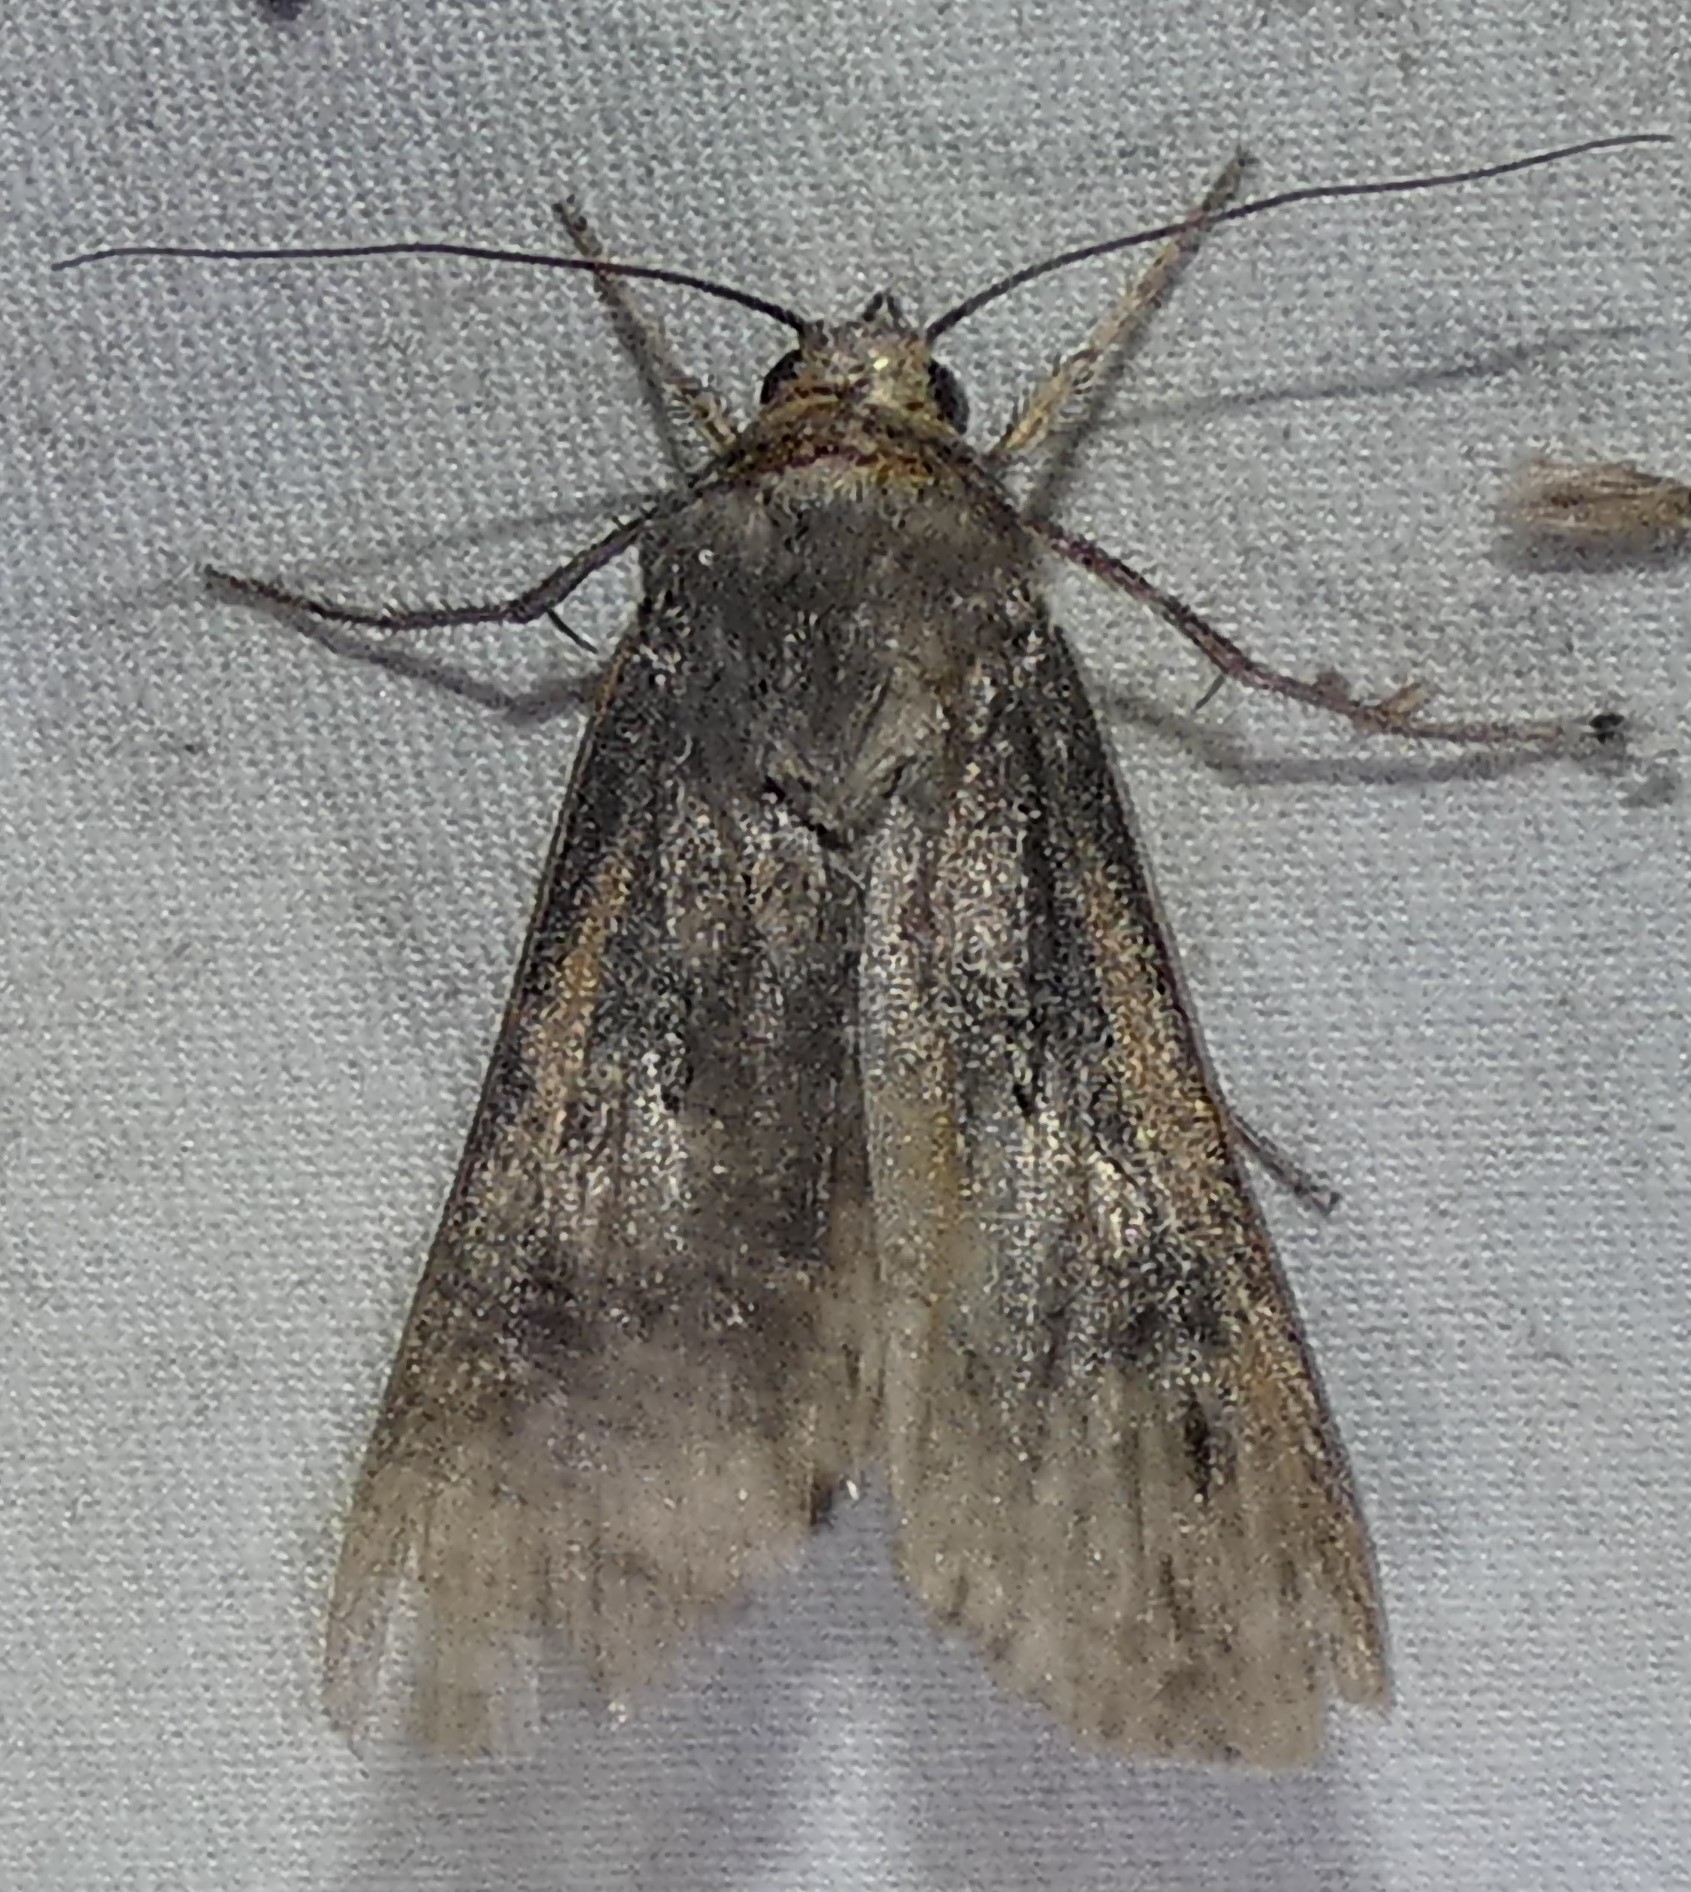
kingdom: Animalia
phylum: Arthropoda
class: Insecta
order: Lepidoptera
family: Noctuidae
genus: Agrotis
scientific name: Agrotis ipsilon
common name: Dark sword-grass
